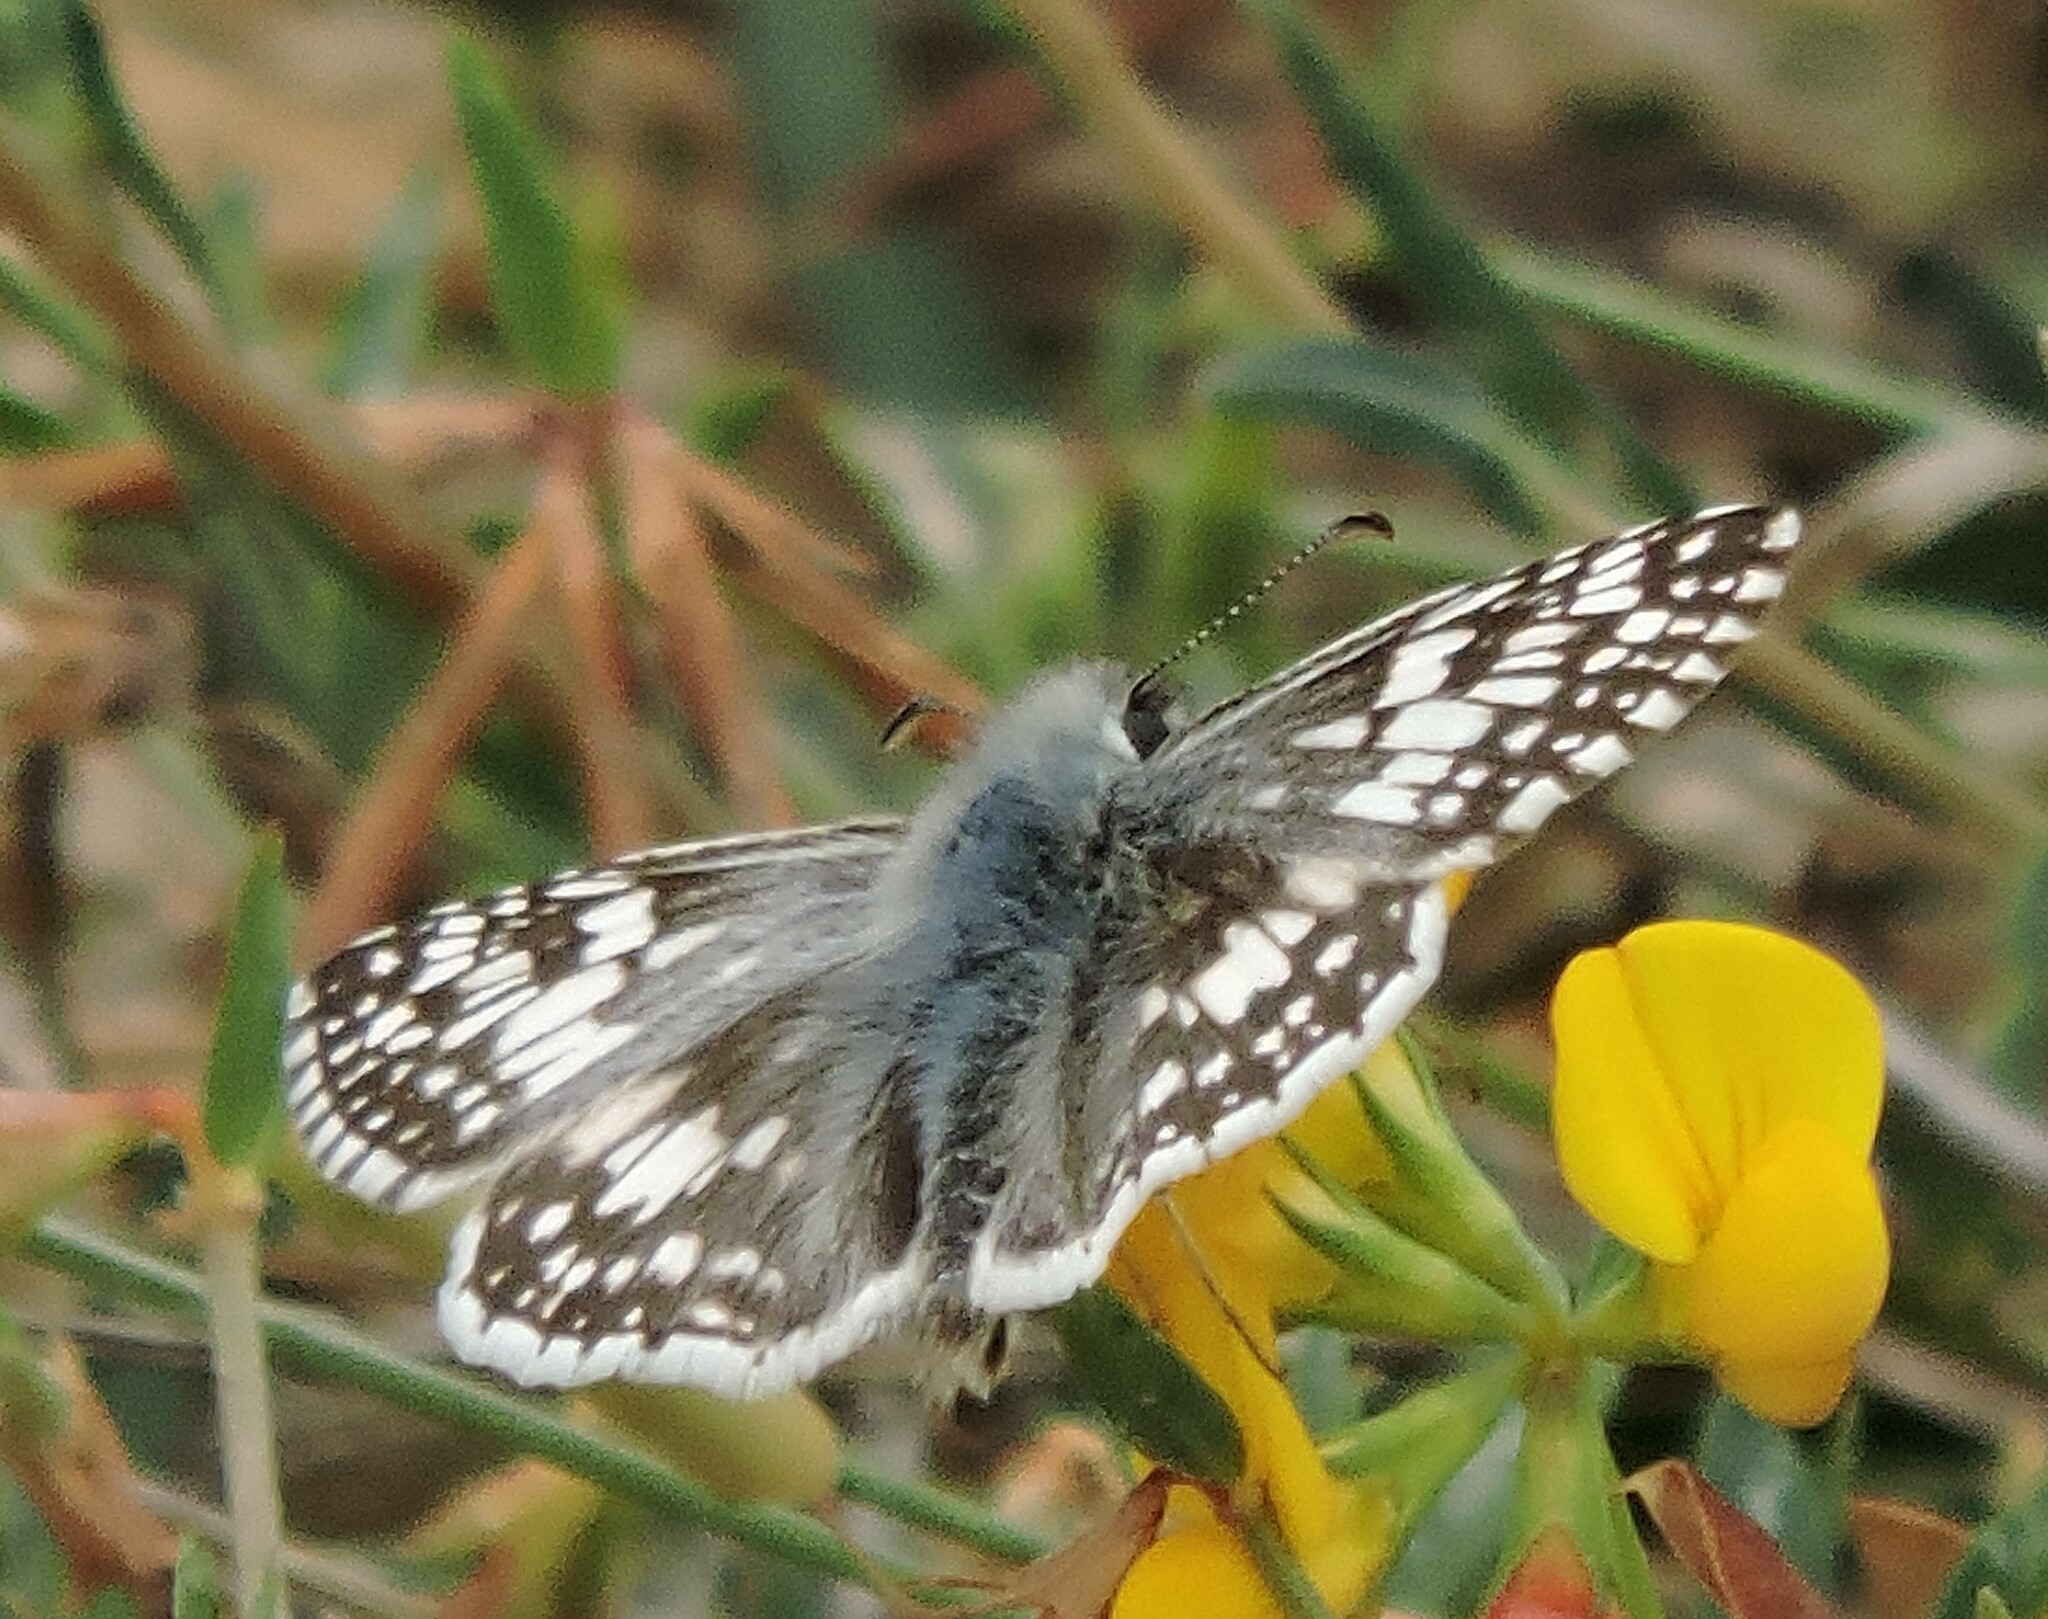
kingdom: Animalia
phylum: Arthropoda
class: Insecta
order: Lepidoptera
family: Hesperiidae
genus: Burnsius
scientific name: Burnsius communis
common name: Common checkered-skipper
